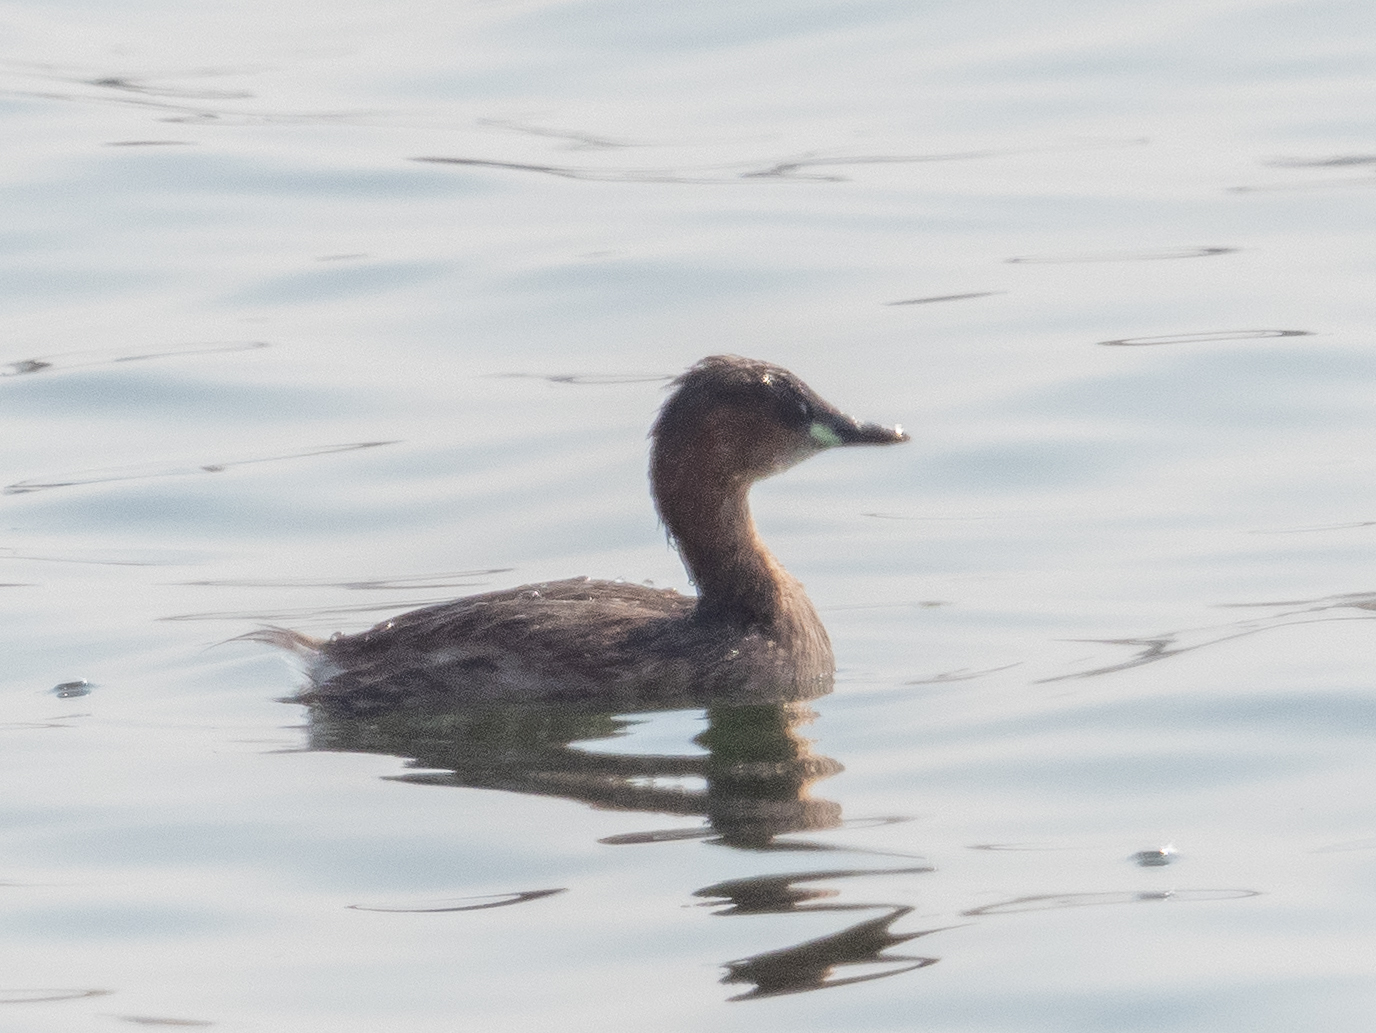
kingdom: Animalia
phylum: Chordata
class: Aves
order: Podicipediformes
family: Podicipedidae
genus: Tachybaptus
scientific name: Tachybaptus ruficollis
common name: Little grebe
